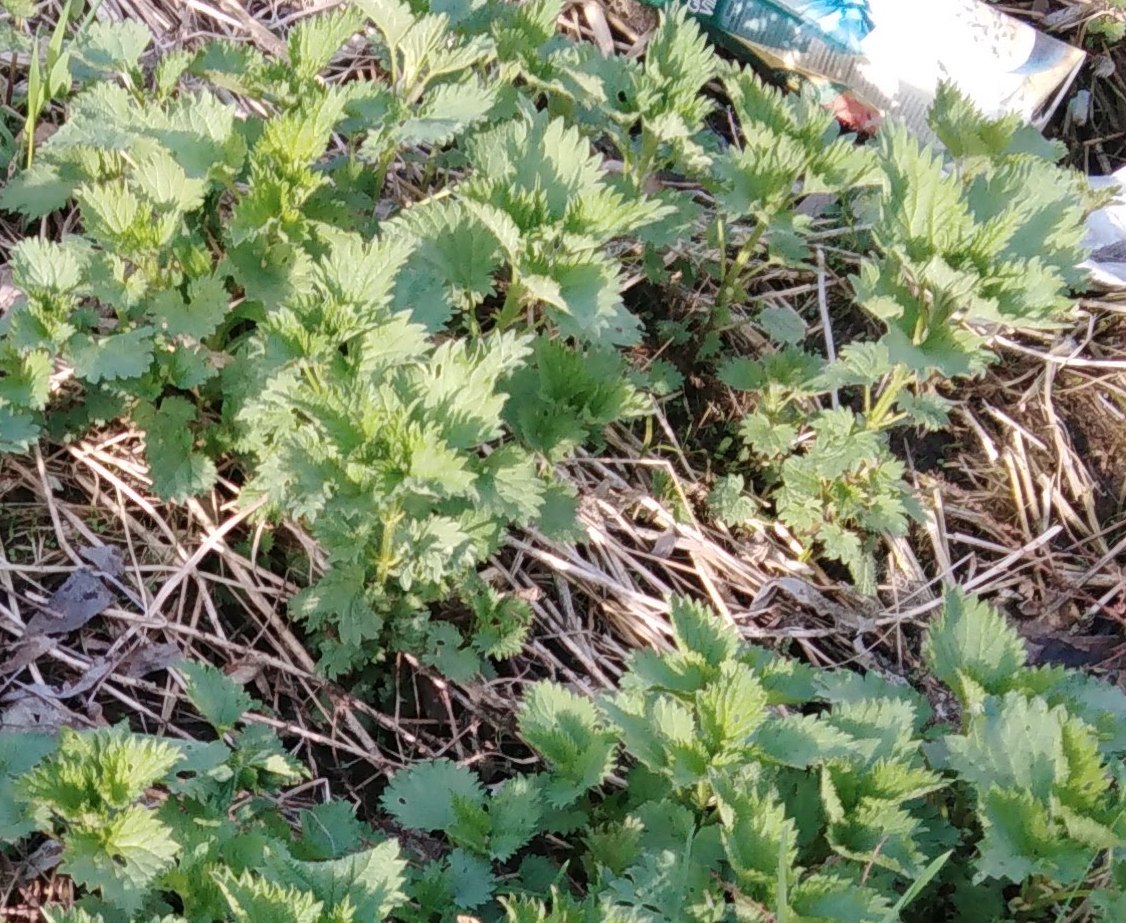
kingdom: Plantae
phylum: Tracheophyta
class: Magnoliopsida
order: Rosales
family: Urticaceae
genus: Urtica
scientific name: Urtica dioica
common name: Common nettle
